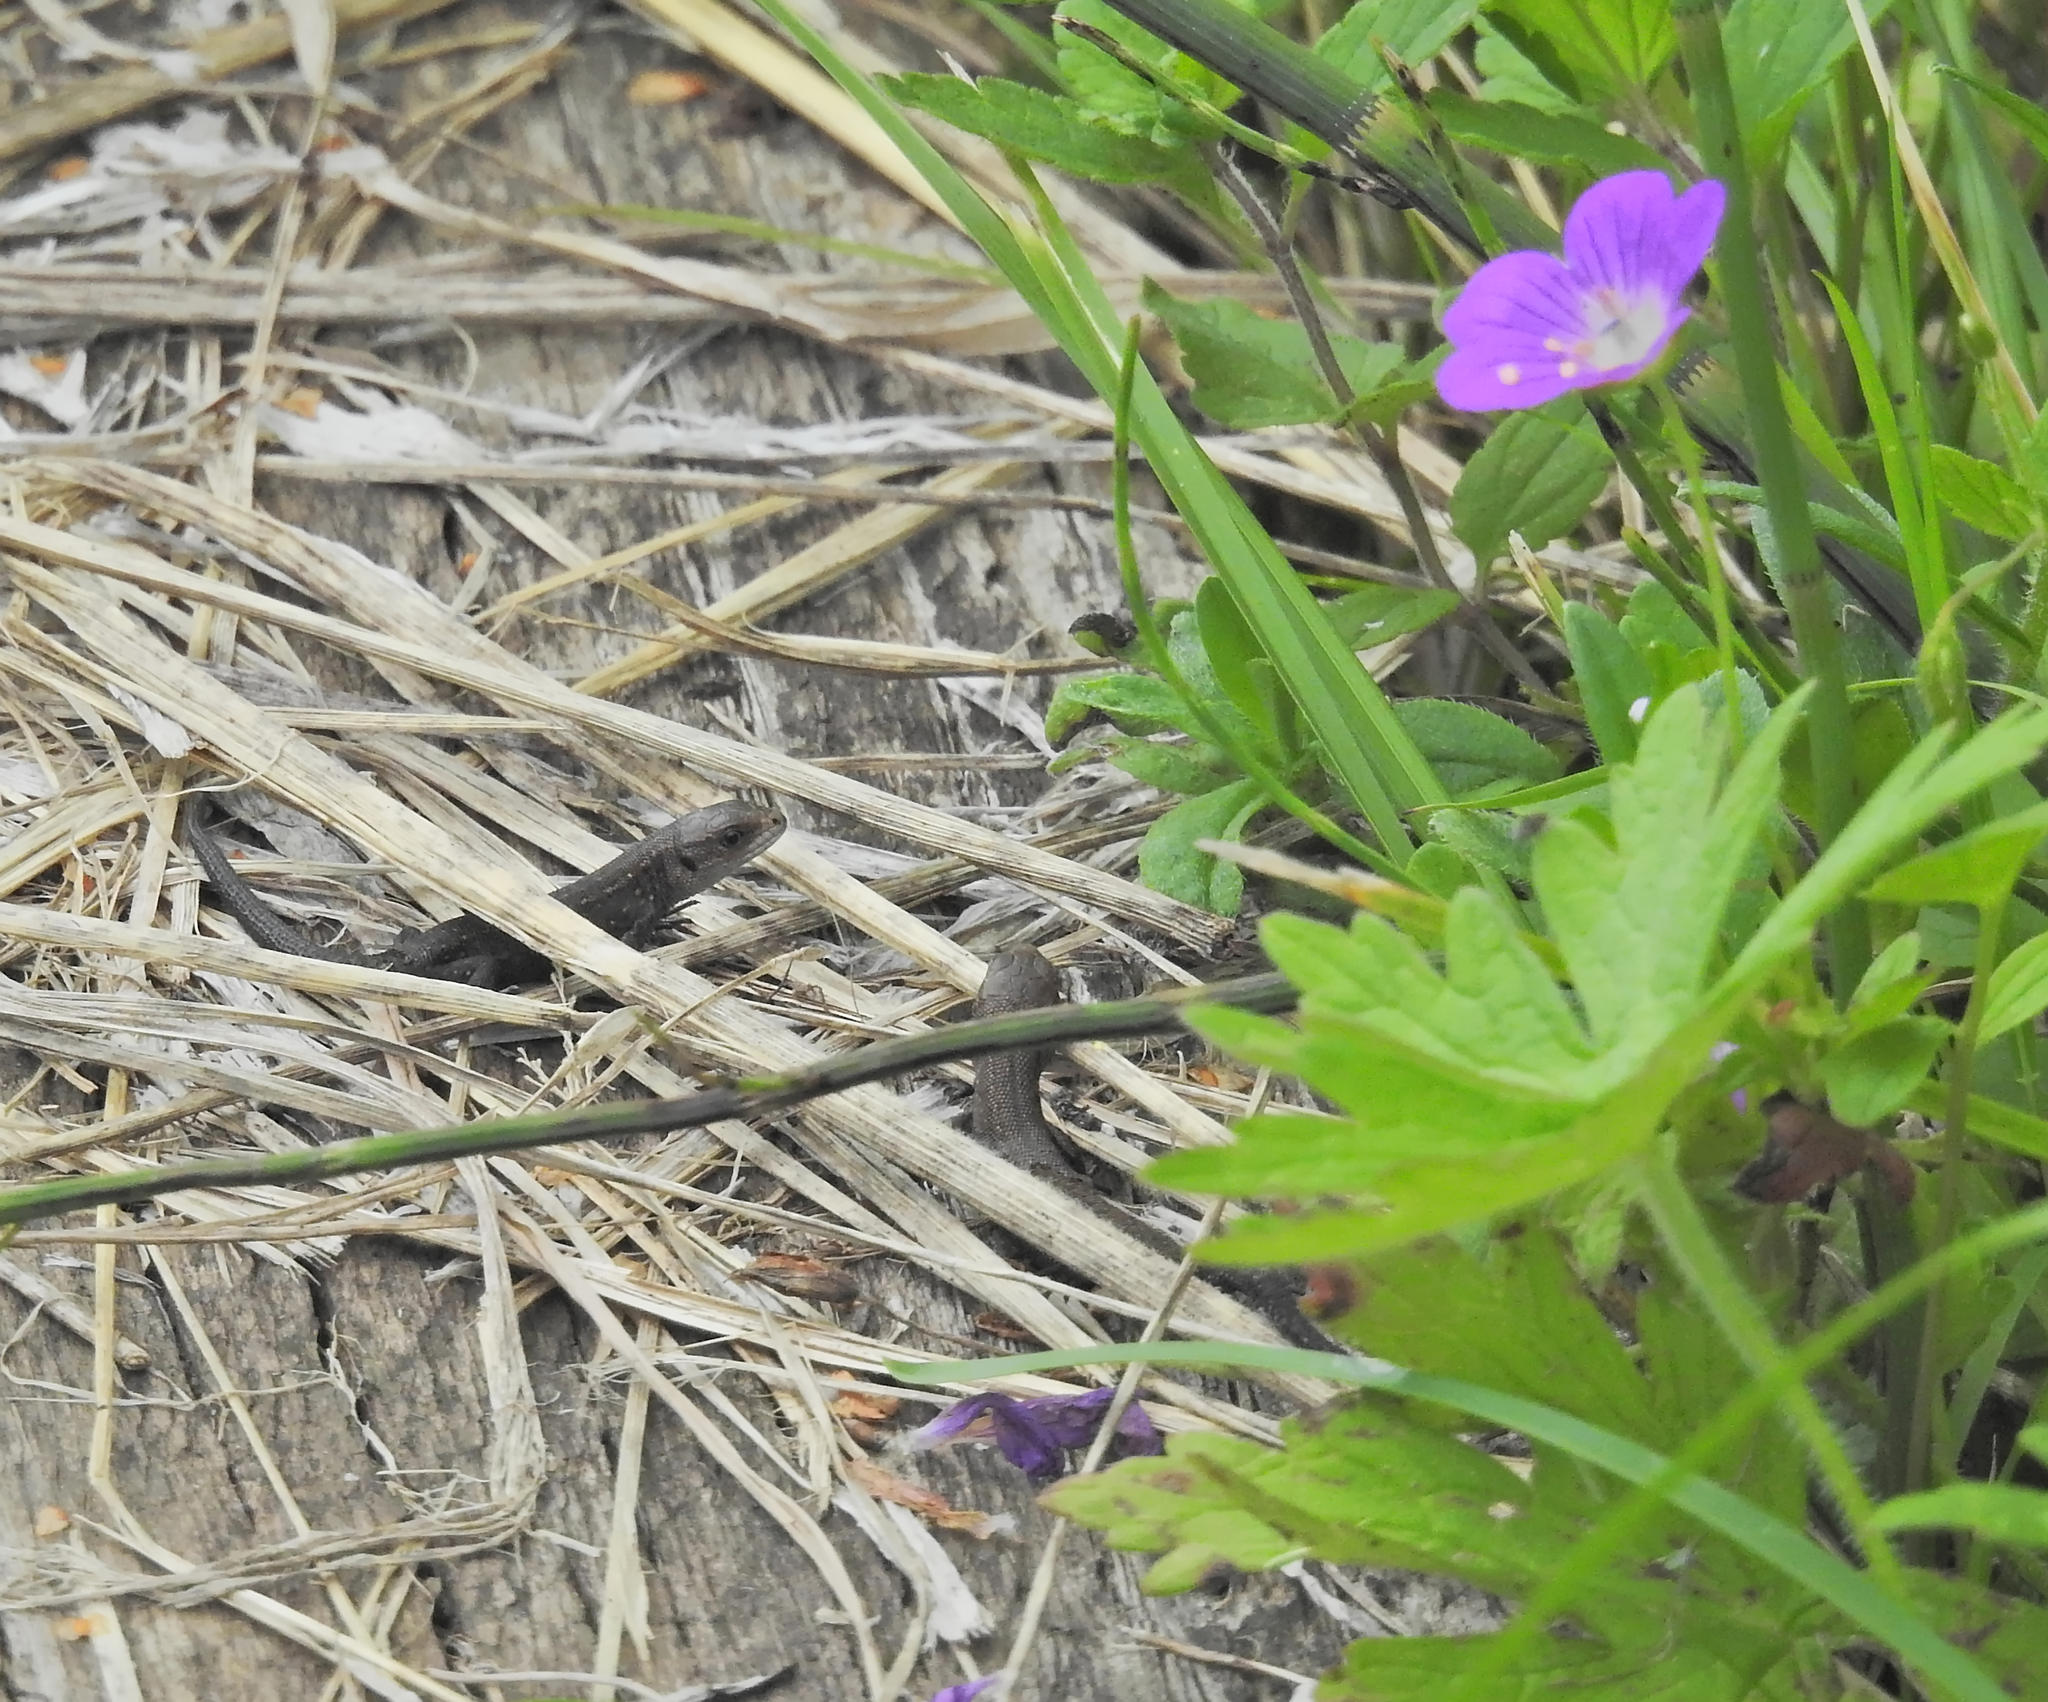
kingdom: Animalia
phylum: Chordata
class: Squamata
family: Lacertidae
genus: Zootoca
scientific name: Zootoca vivipara
